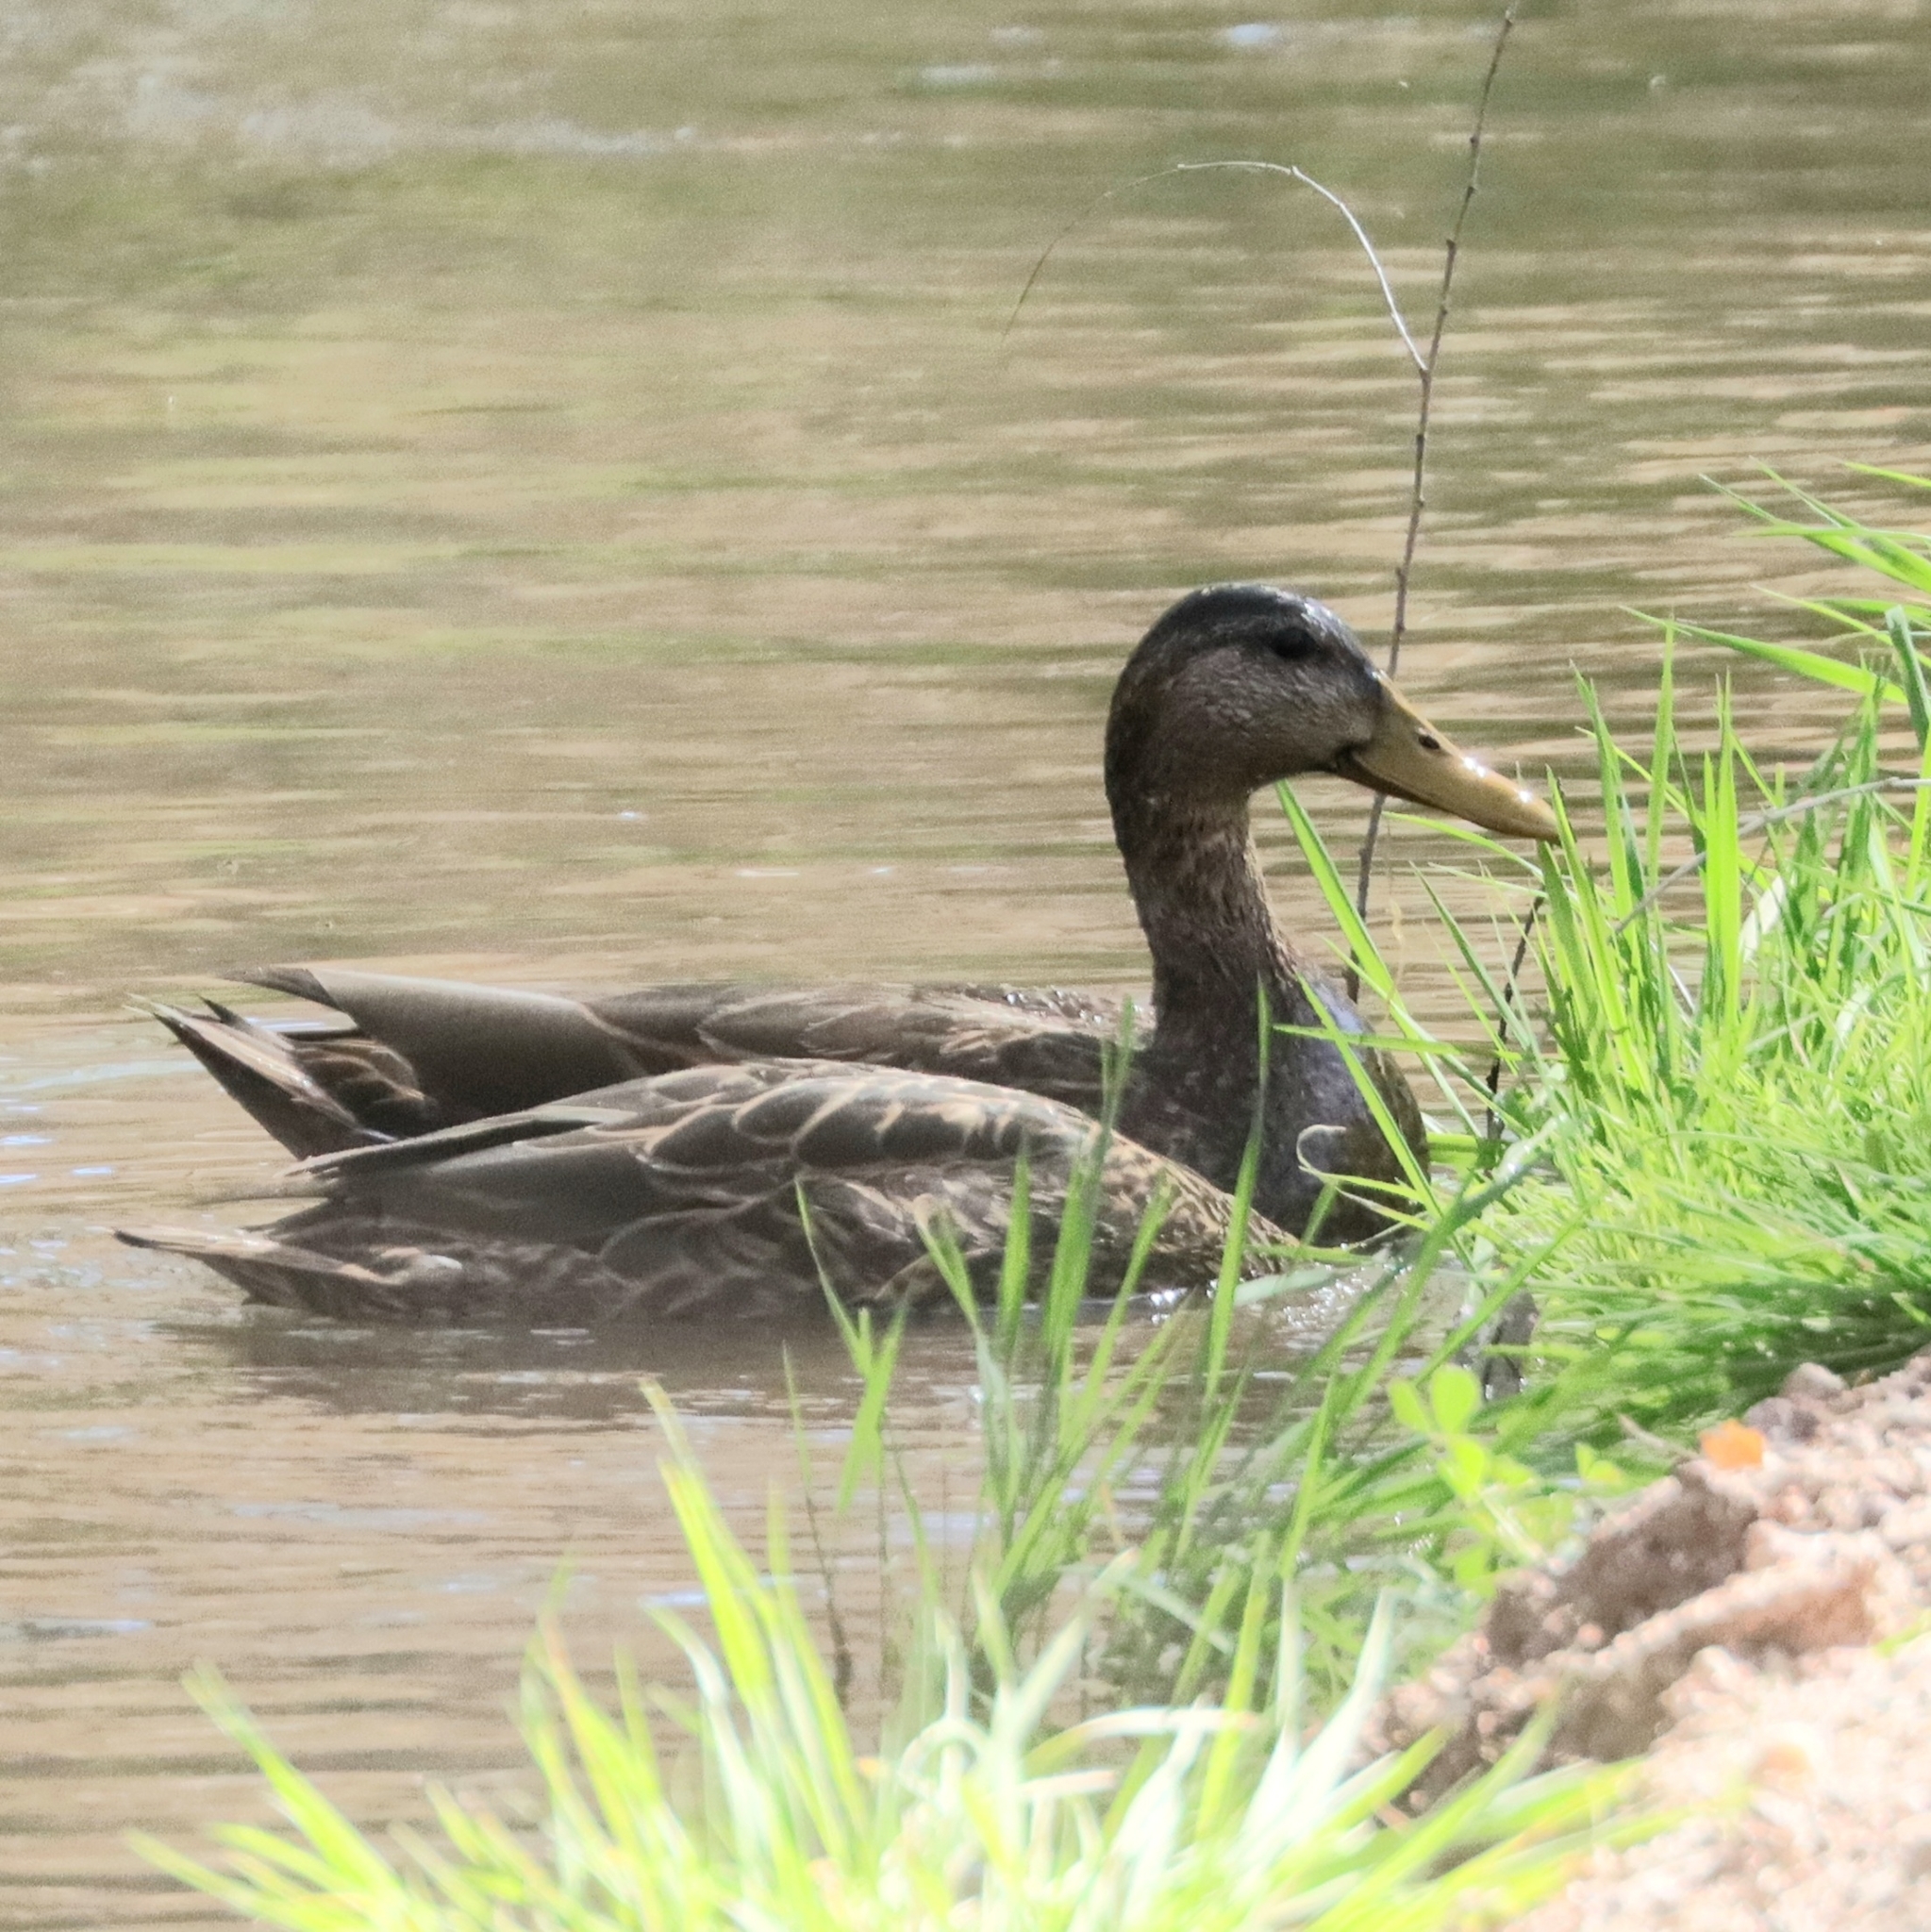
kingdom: Animalia
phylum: Chordata
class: Aves
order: Anseriformes
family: Anatidae
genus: Anas
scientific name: Anas diazi
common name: Mexican duck
